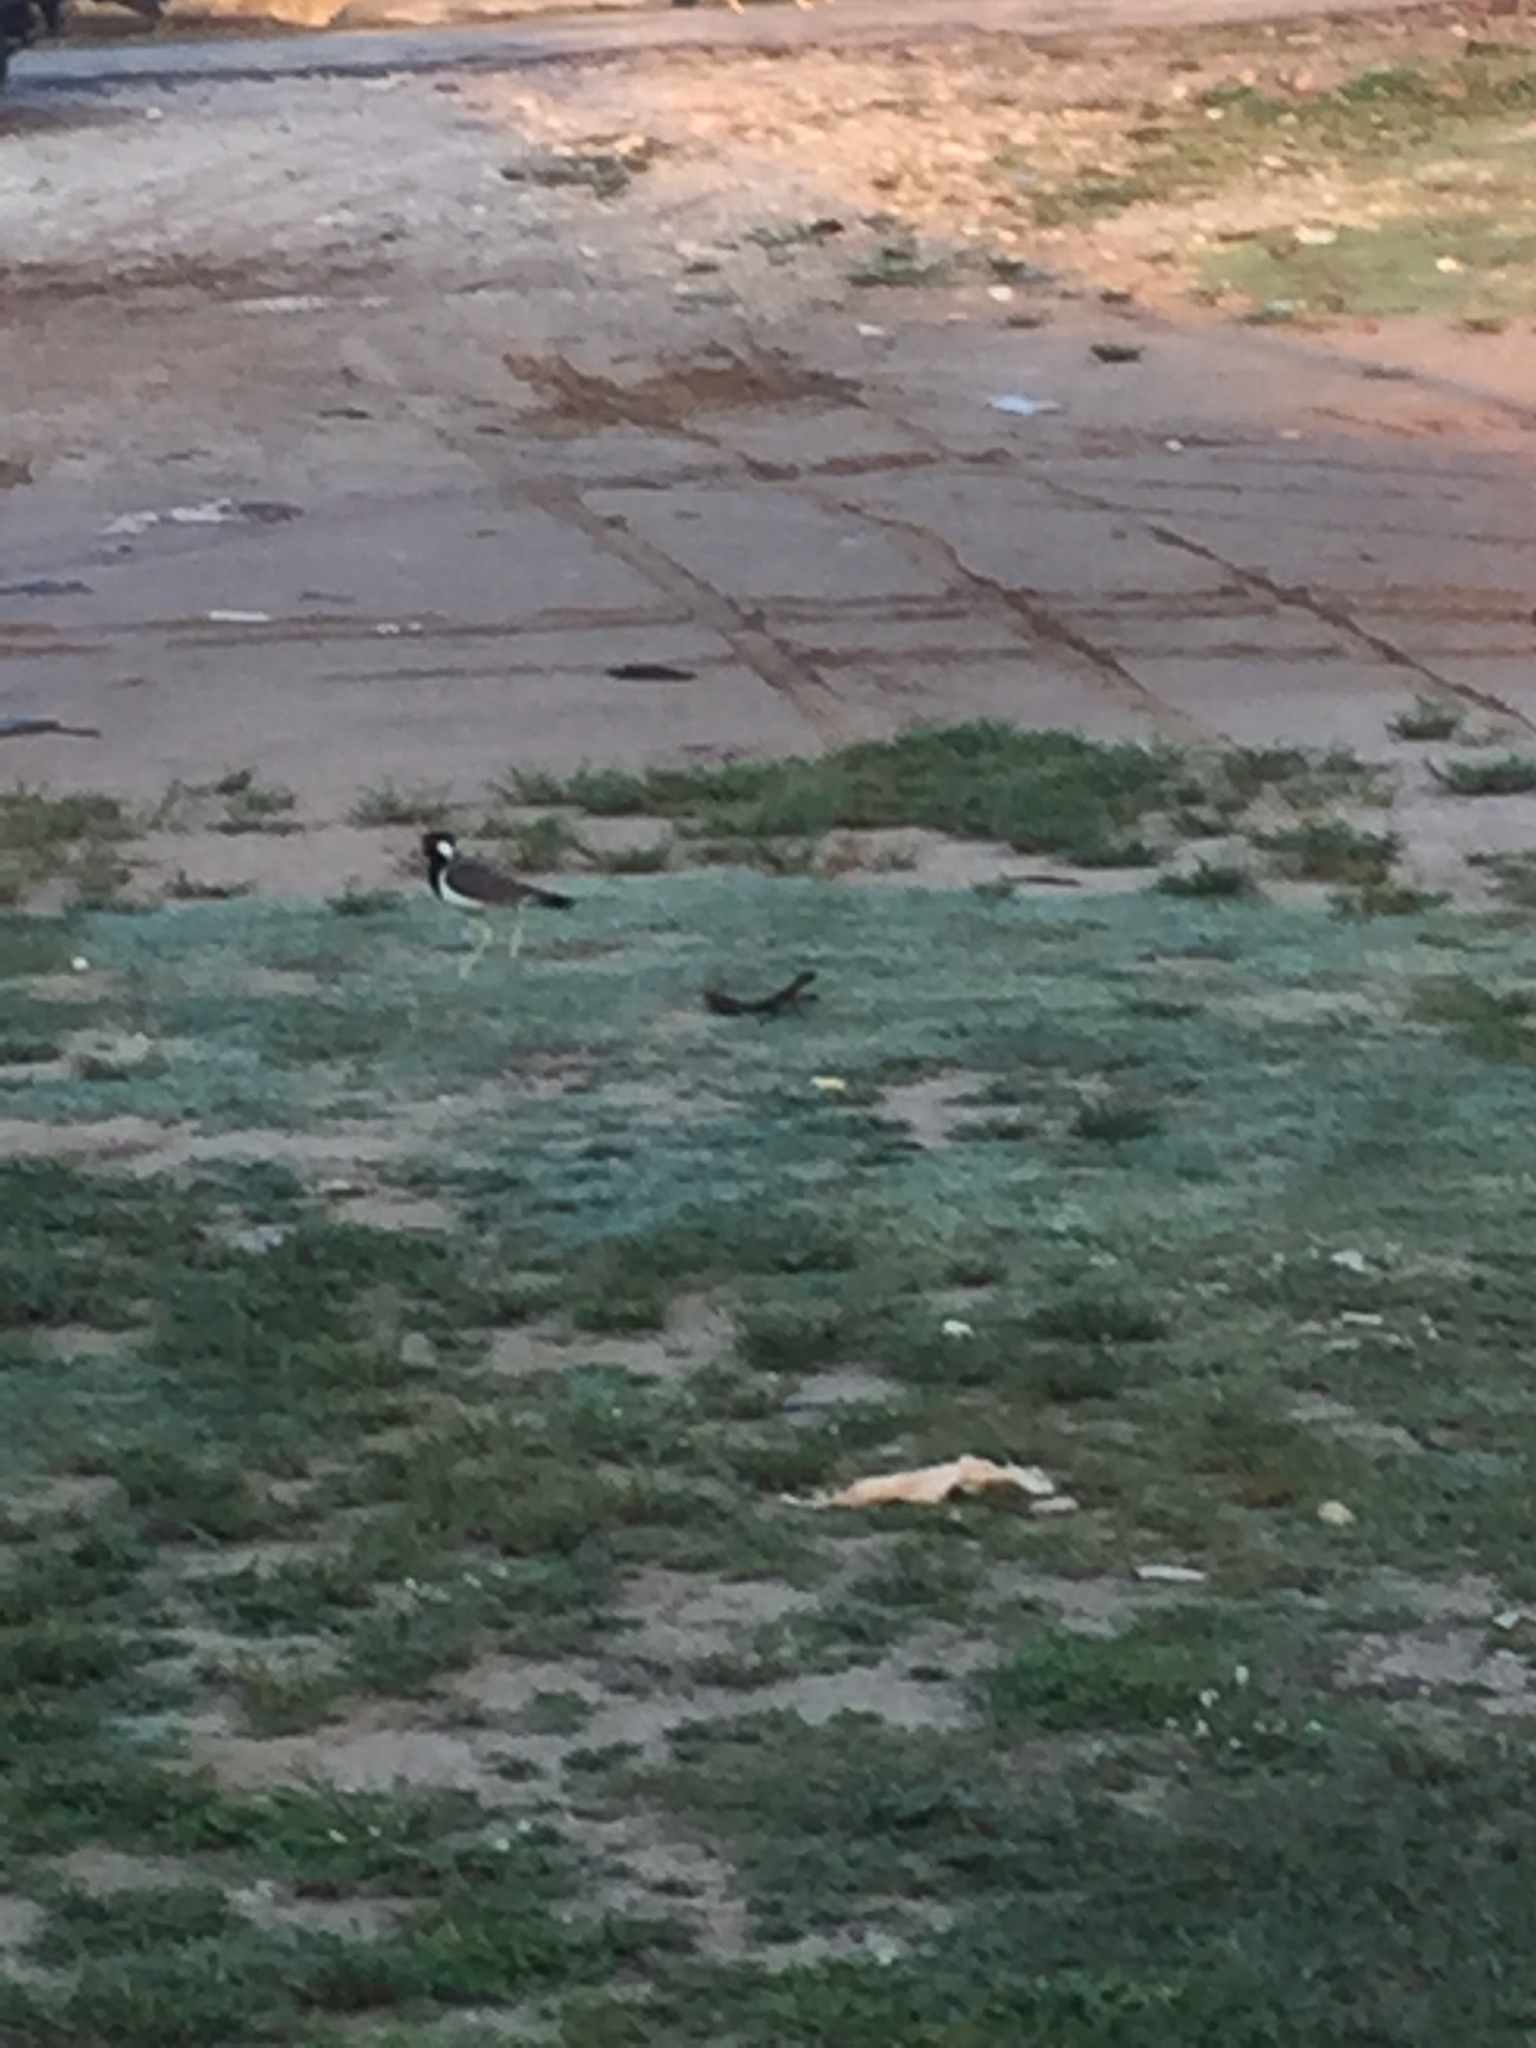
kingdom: Animalia
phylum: Chordata
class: Aves
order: Charadriiformes
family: Charadriidae
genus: Vanellus
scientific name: Vanellus indicus
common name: Red-wattled lapwing
